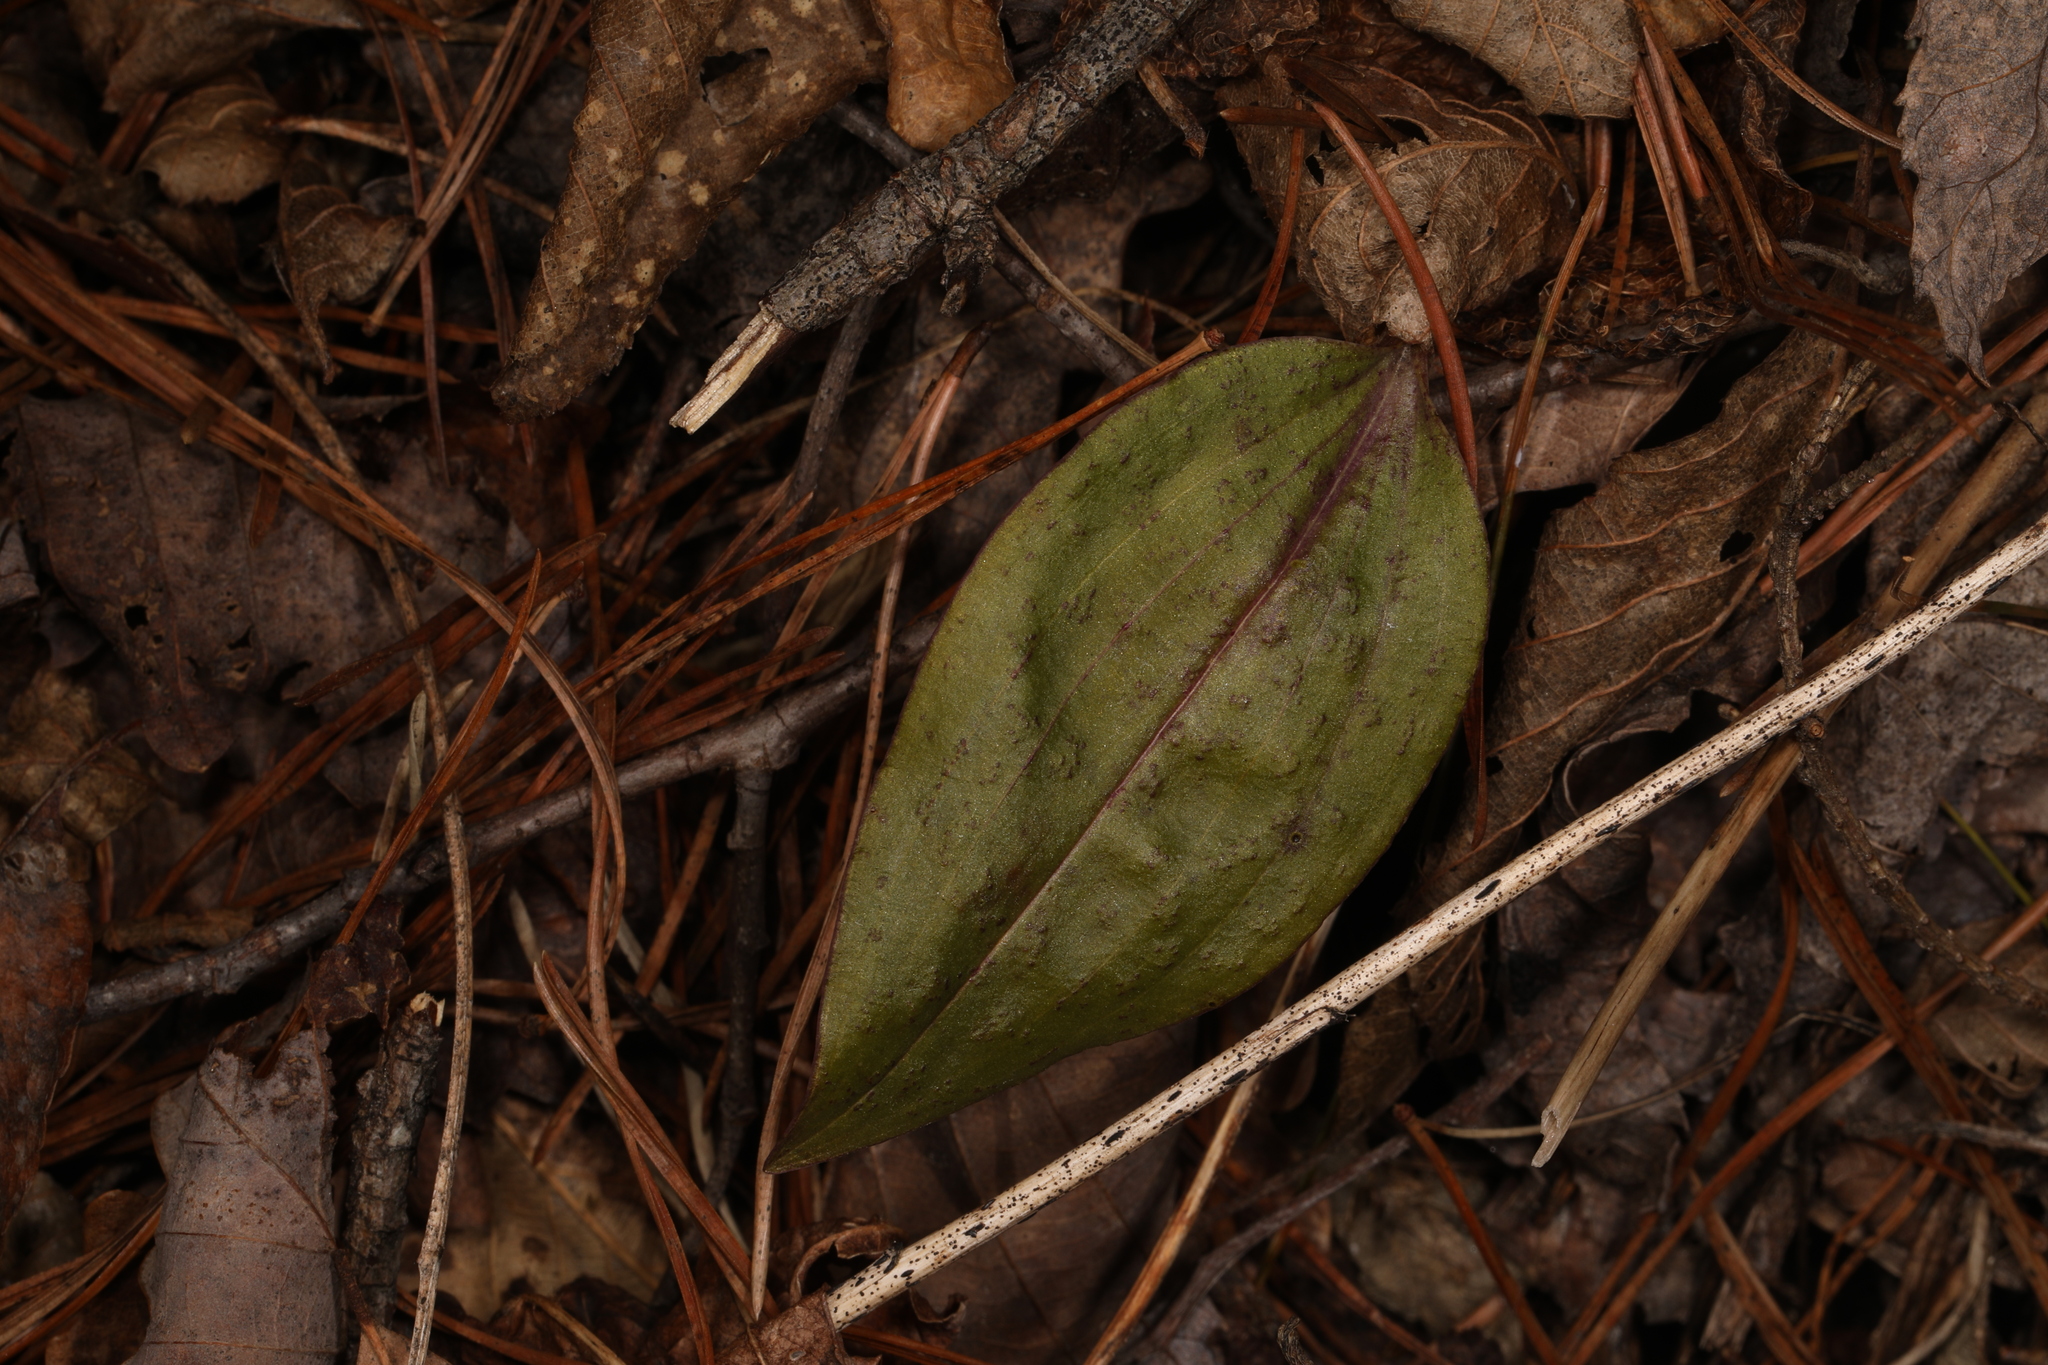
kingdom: Plantae
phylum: Tracheophyta
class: Liliopsida
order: Asparagales
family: Orchidaceae
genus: Tipularia
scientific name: Tipularia discolor
